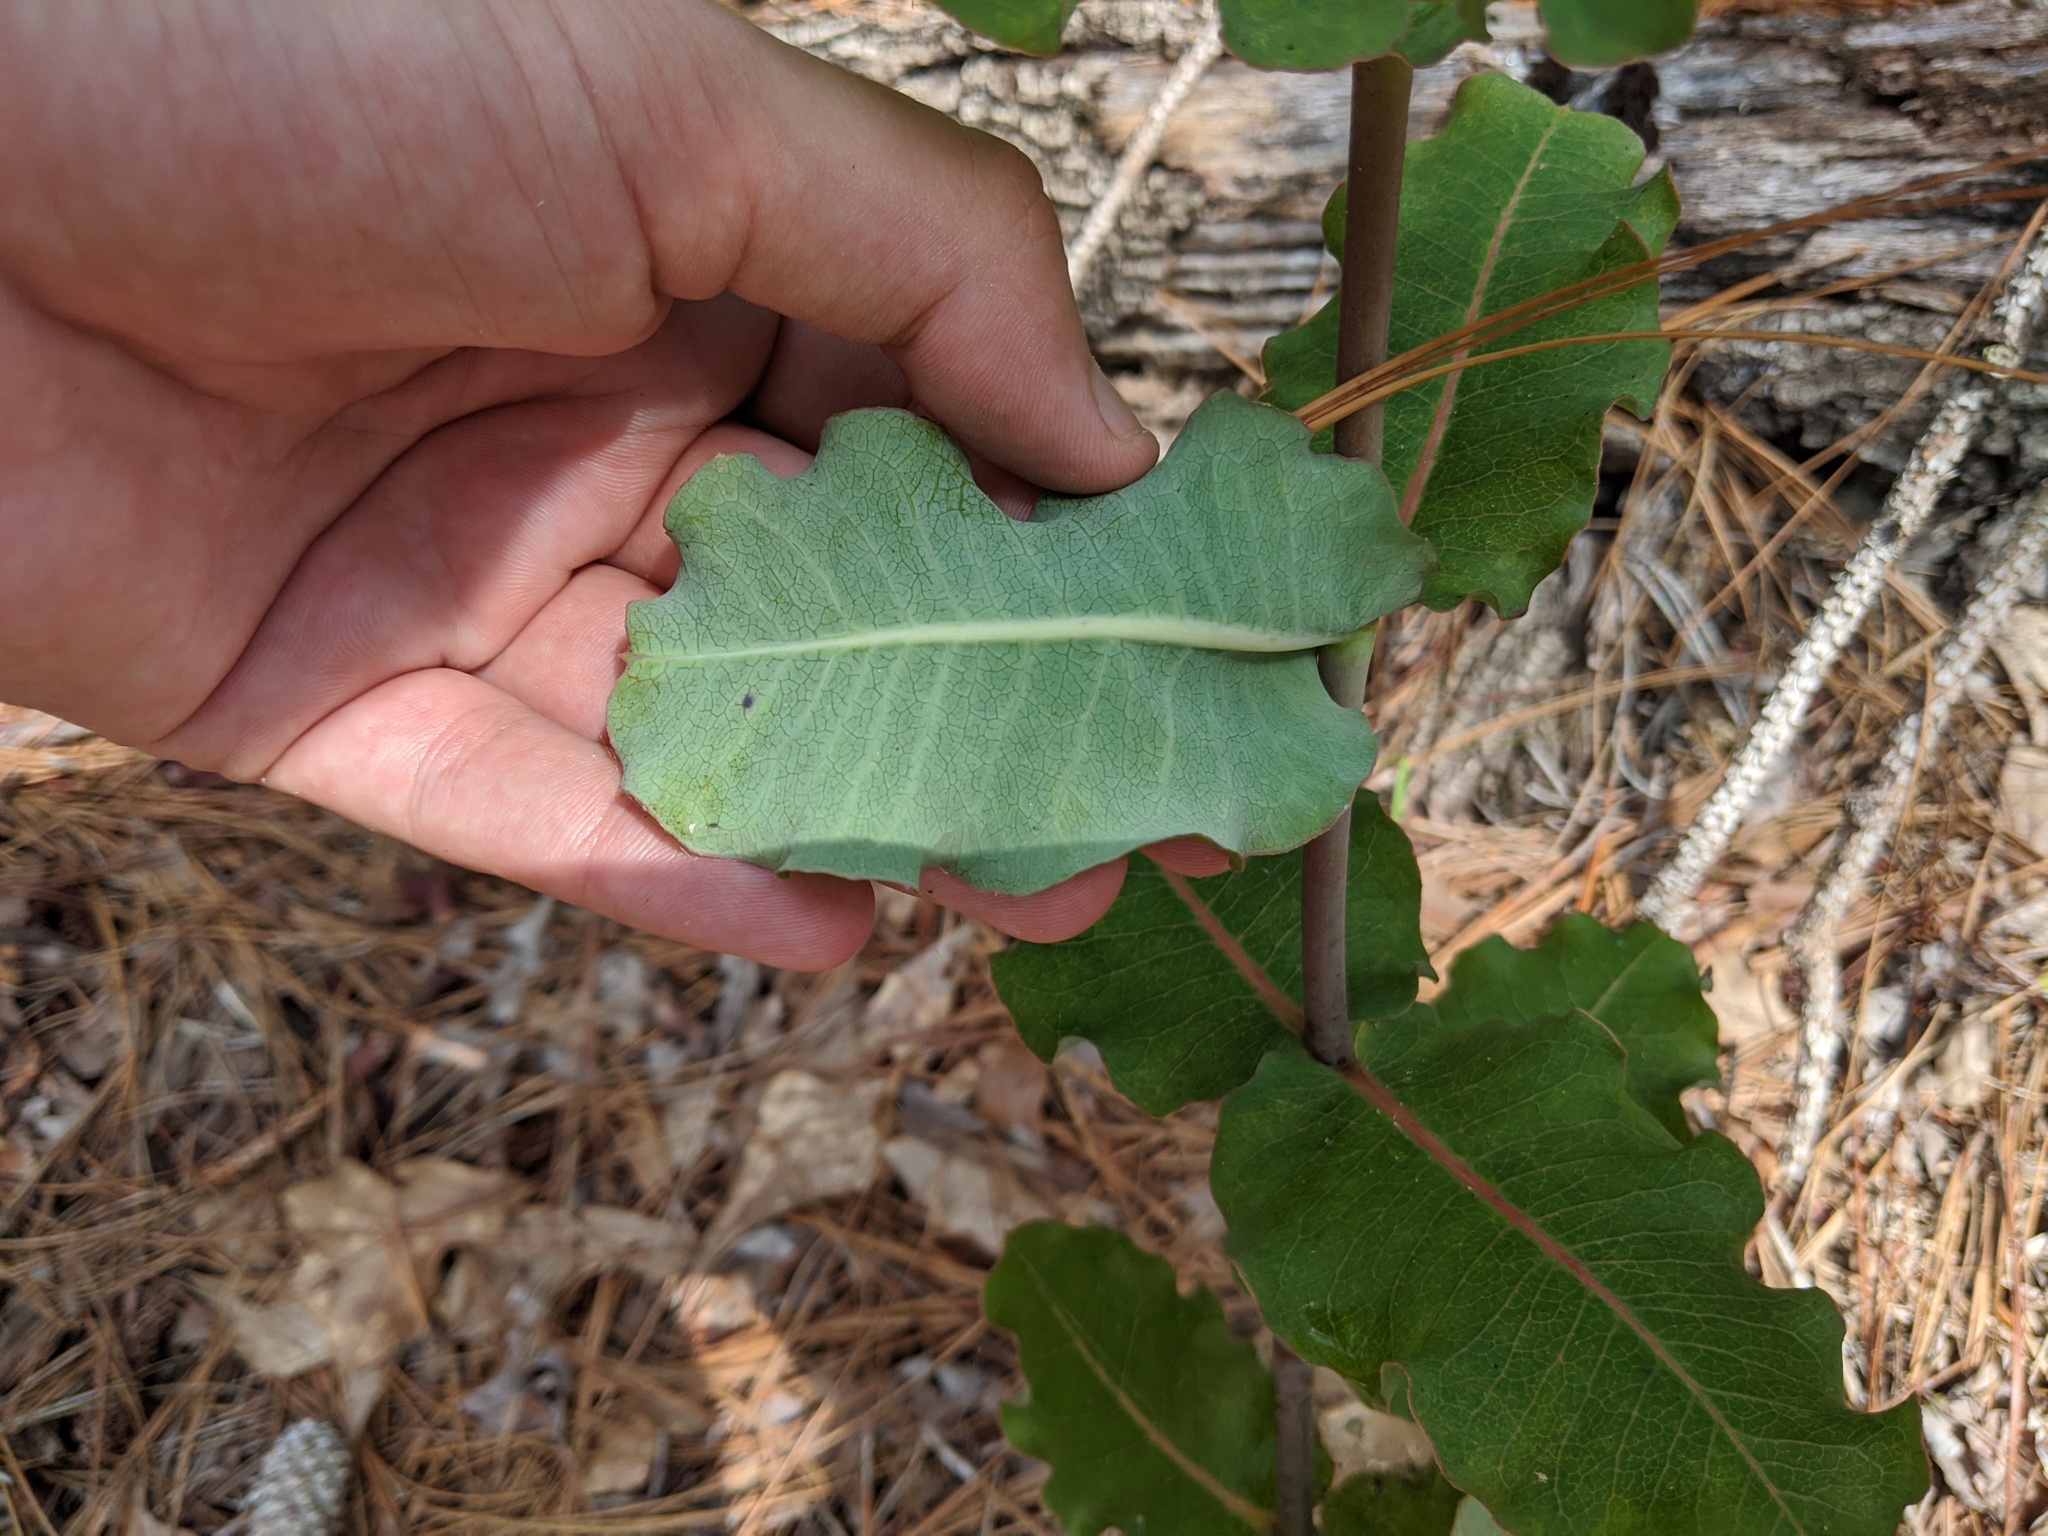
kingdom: Plantae
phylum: Tracheophyta
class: Magnoliopsida
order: Gentianales
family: Apocynaceae
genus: Asclepias
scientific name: Asclepias amplexicaulis
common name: Blunt-leaf milkweed
